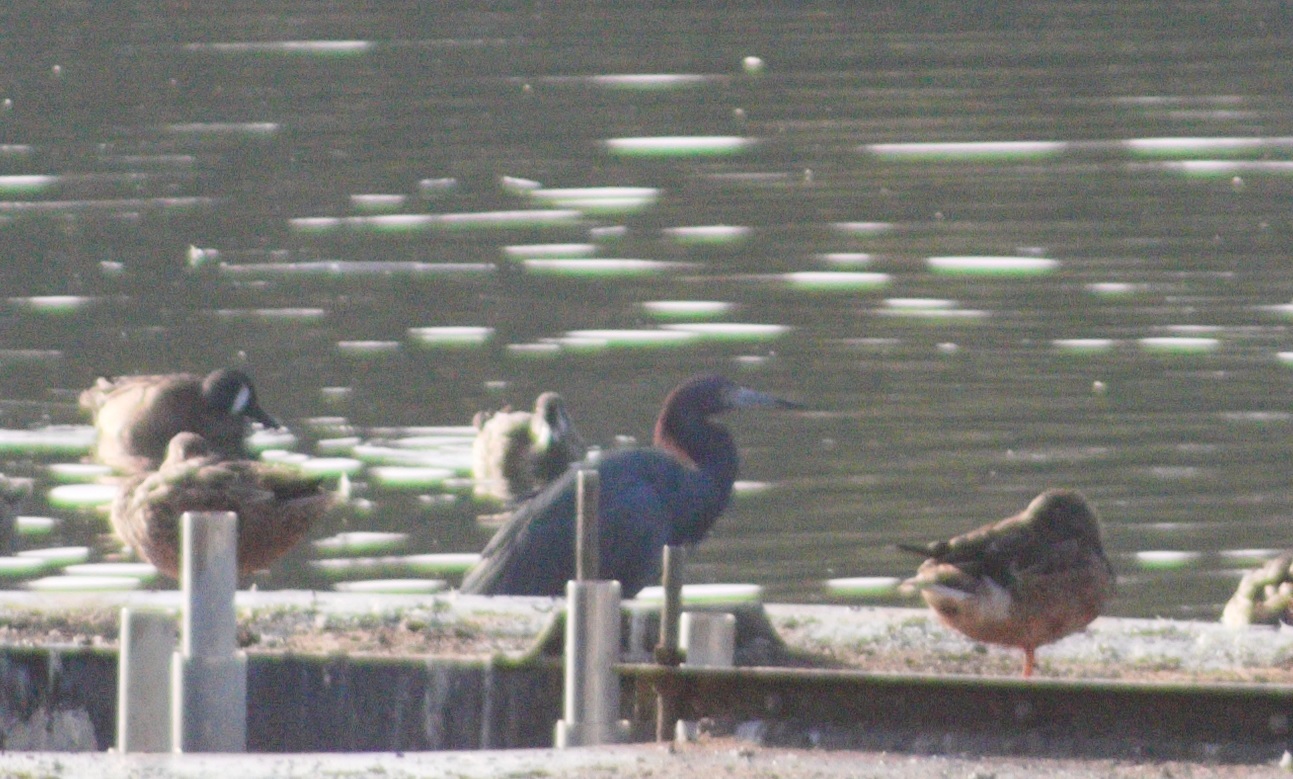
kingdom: Animalia
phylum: Chordata
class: Aves
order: Pelecaniformes
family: Ardeidae
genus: Egretta
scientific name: Egretta caerulea
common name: Little blue heron
